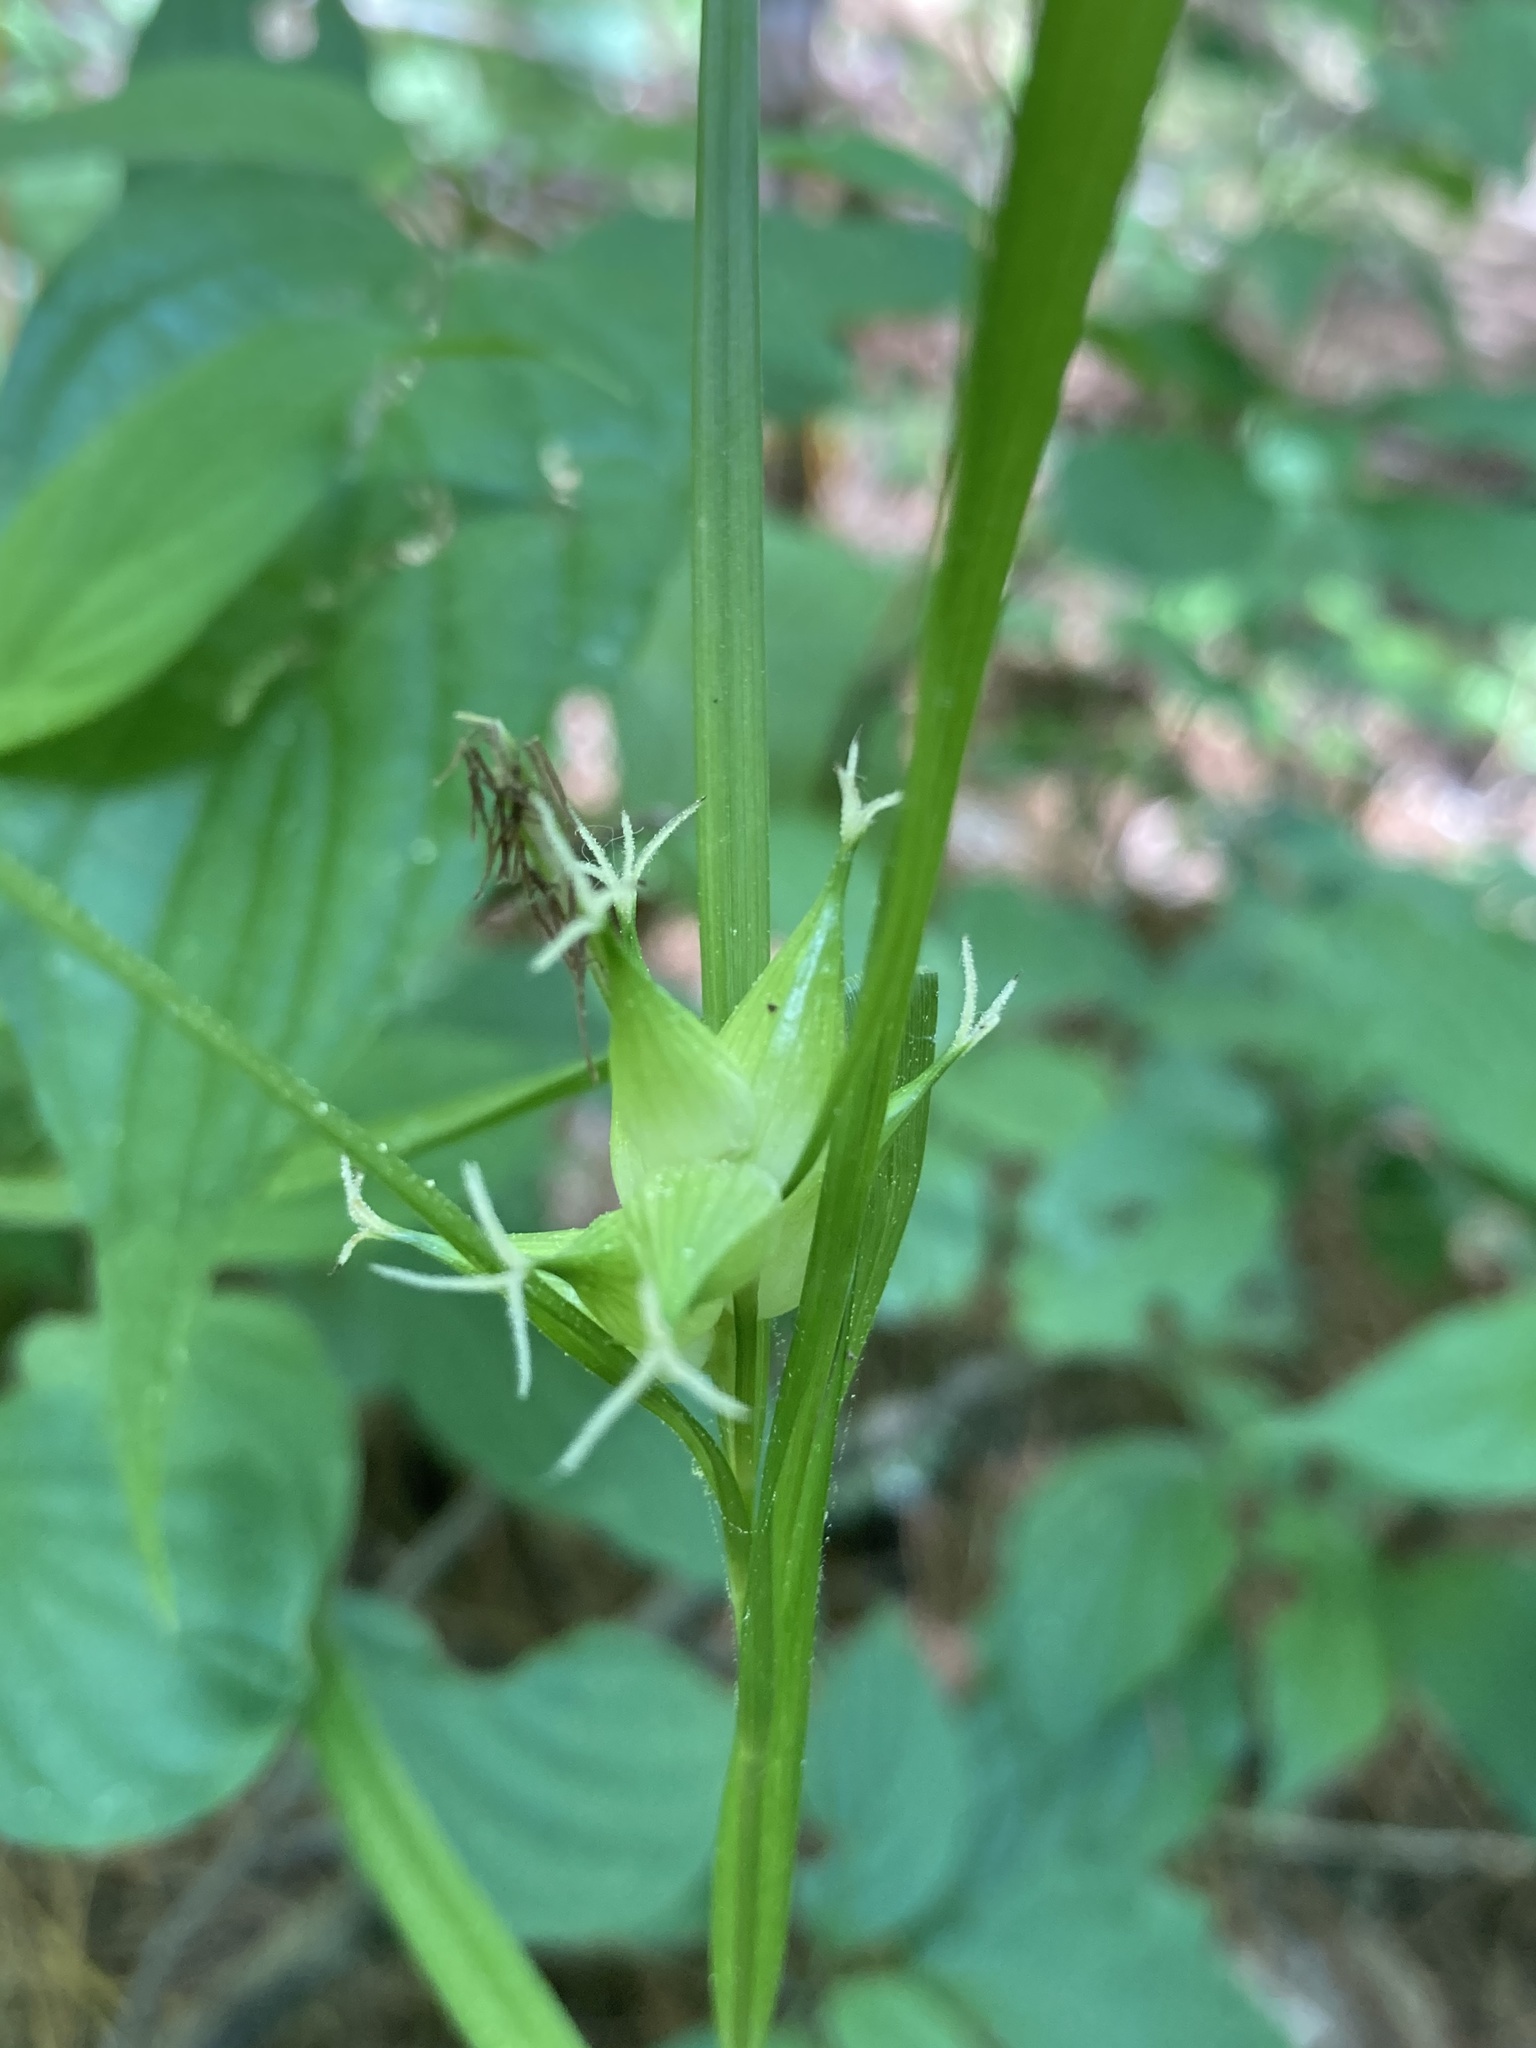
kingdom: Plantae
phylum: Tracheophyta
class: Liliopsida
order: Poales
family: Cyperaceae
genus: Carex
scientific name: Carex intumescens
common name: Greater bladder sedge
